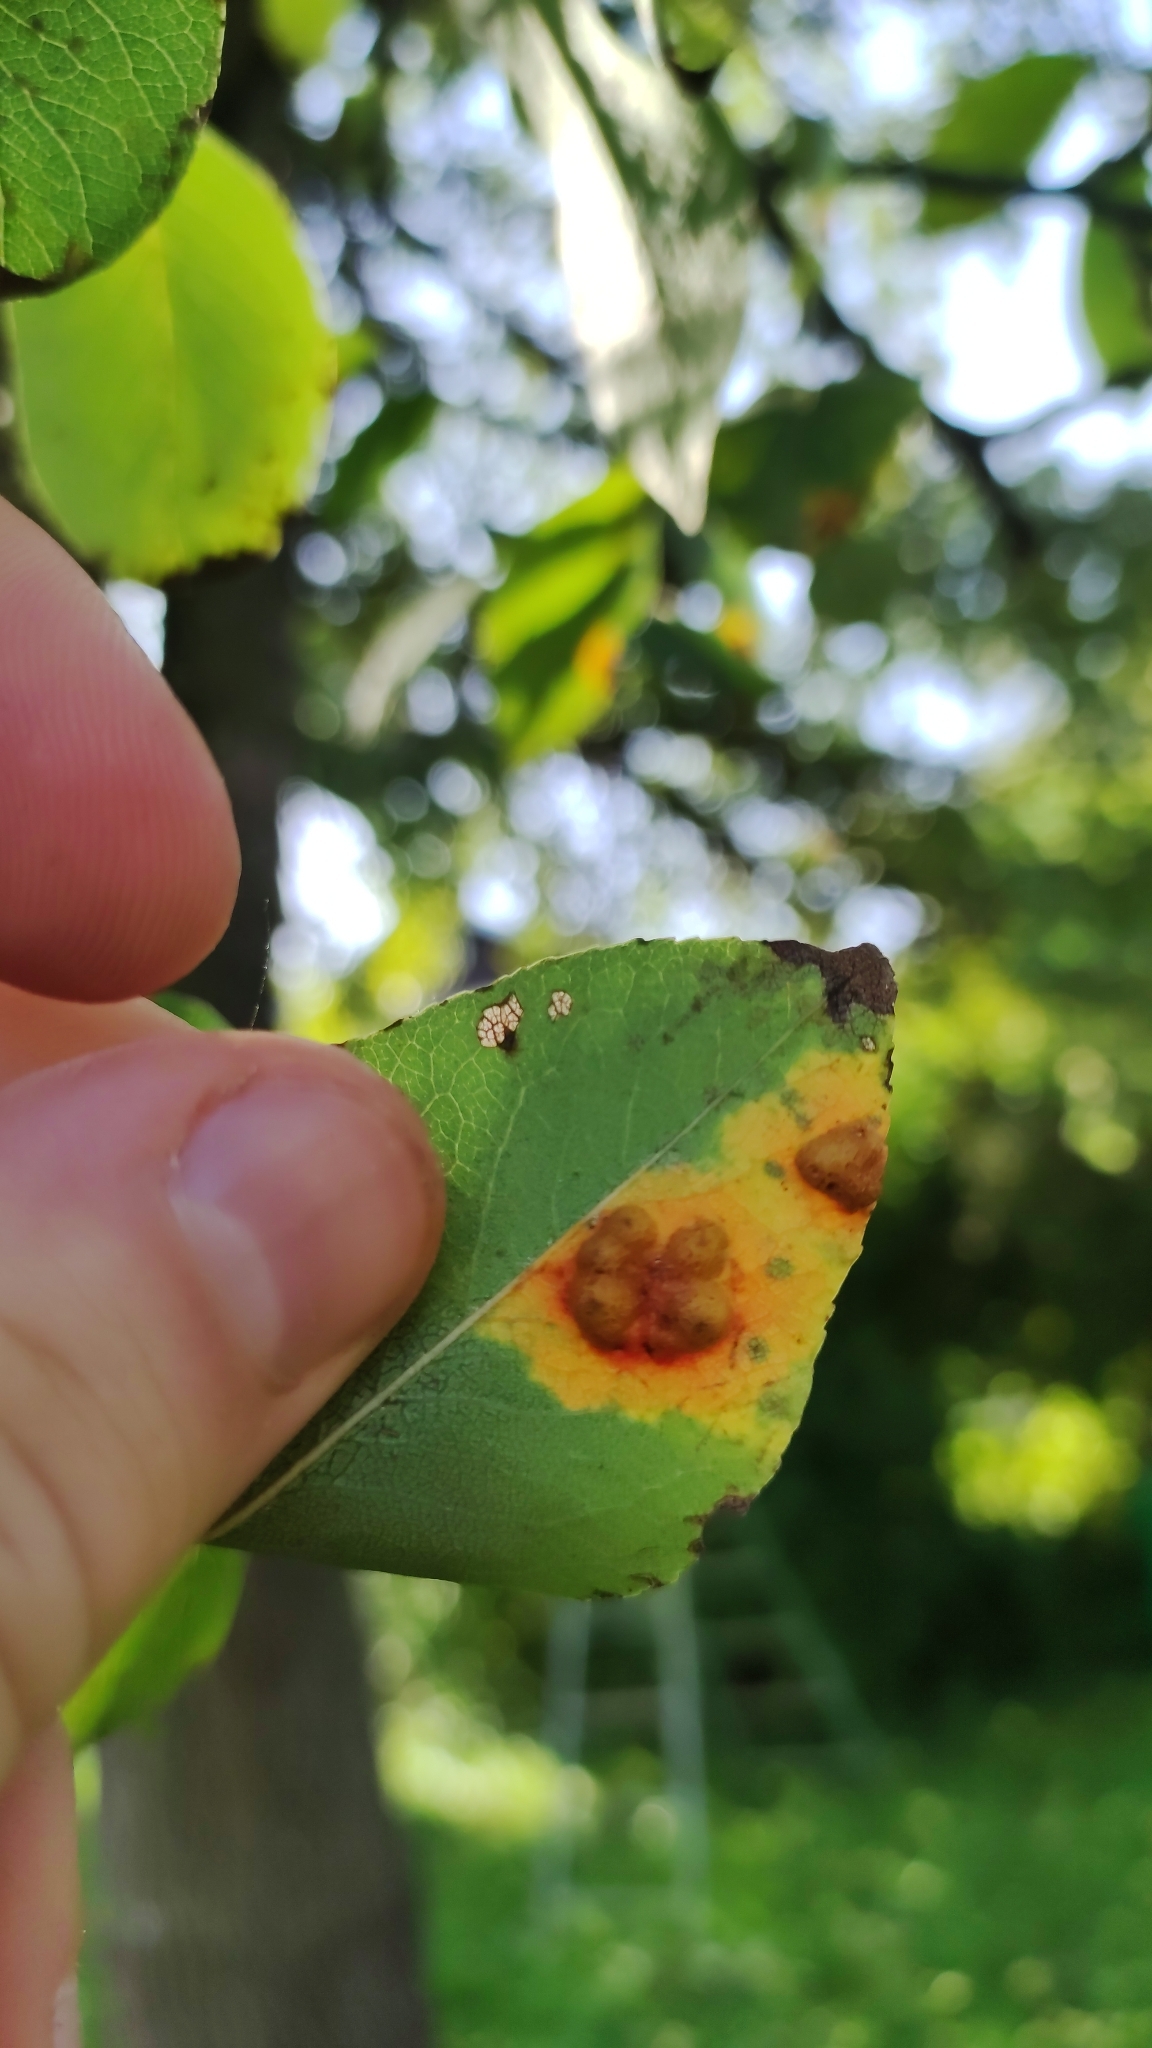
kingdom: Fungi
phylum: Basidiomycota
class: Pucciniomycetes
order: Pucciniales
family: Gymnosporangiaceae
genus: Gymnosporangium
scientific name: Gymnosporangium sabinae
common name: Pear trellis rust fungus
